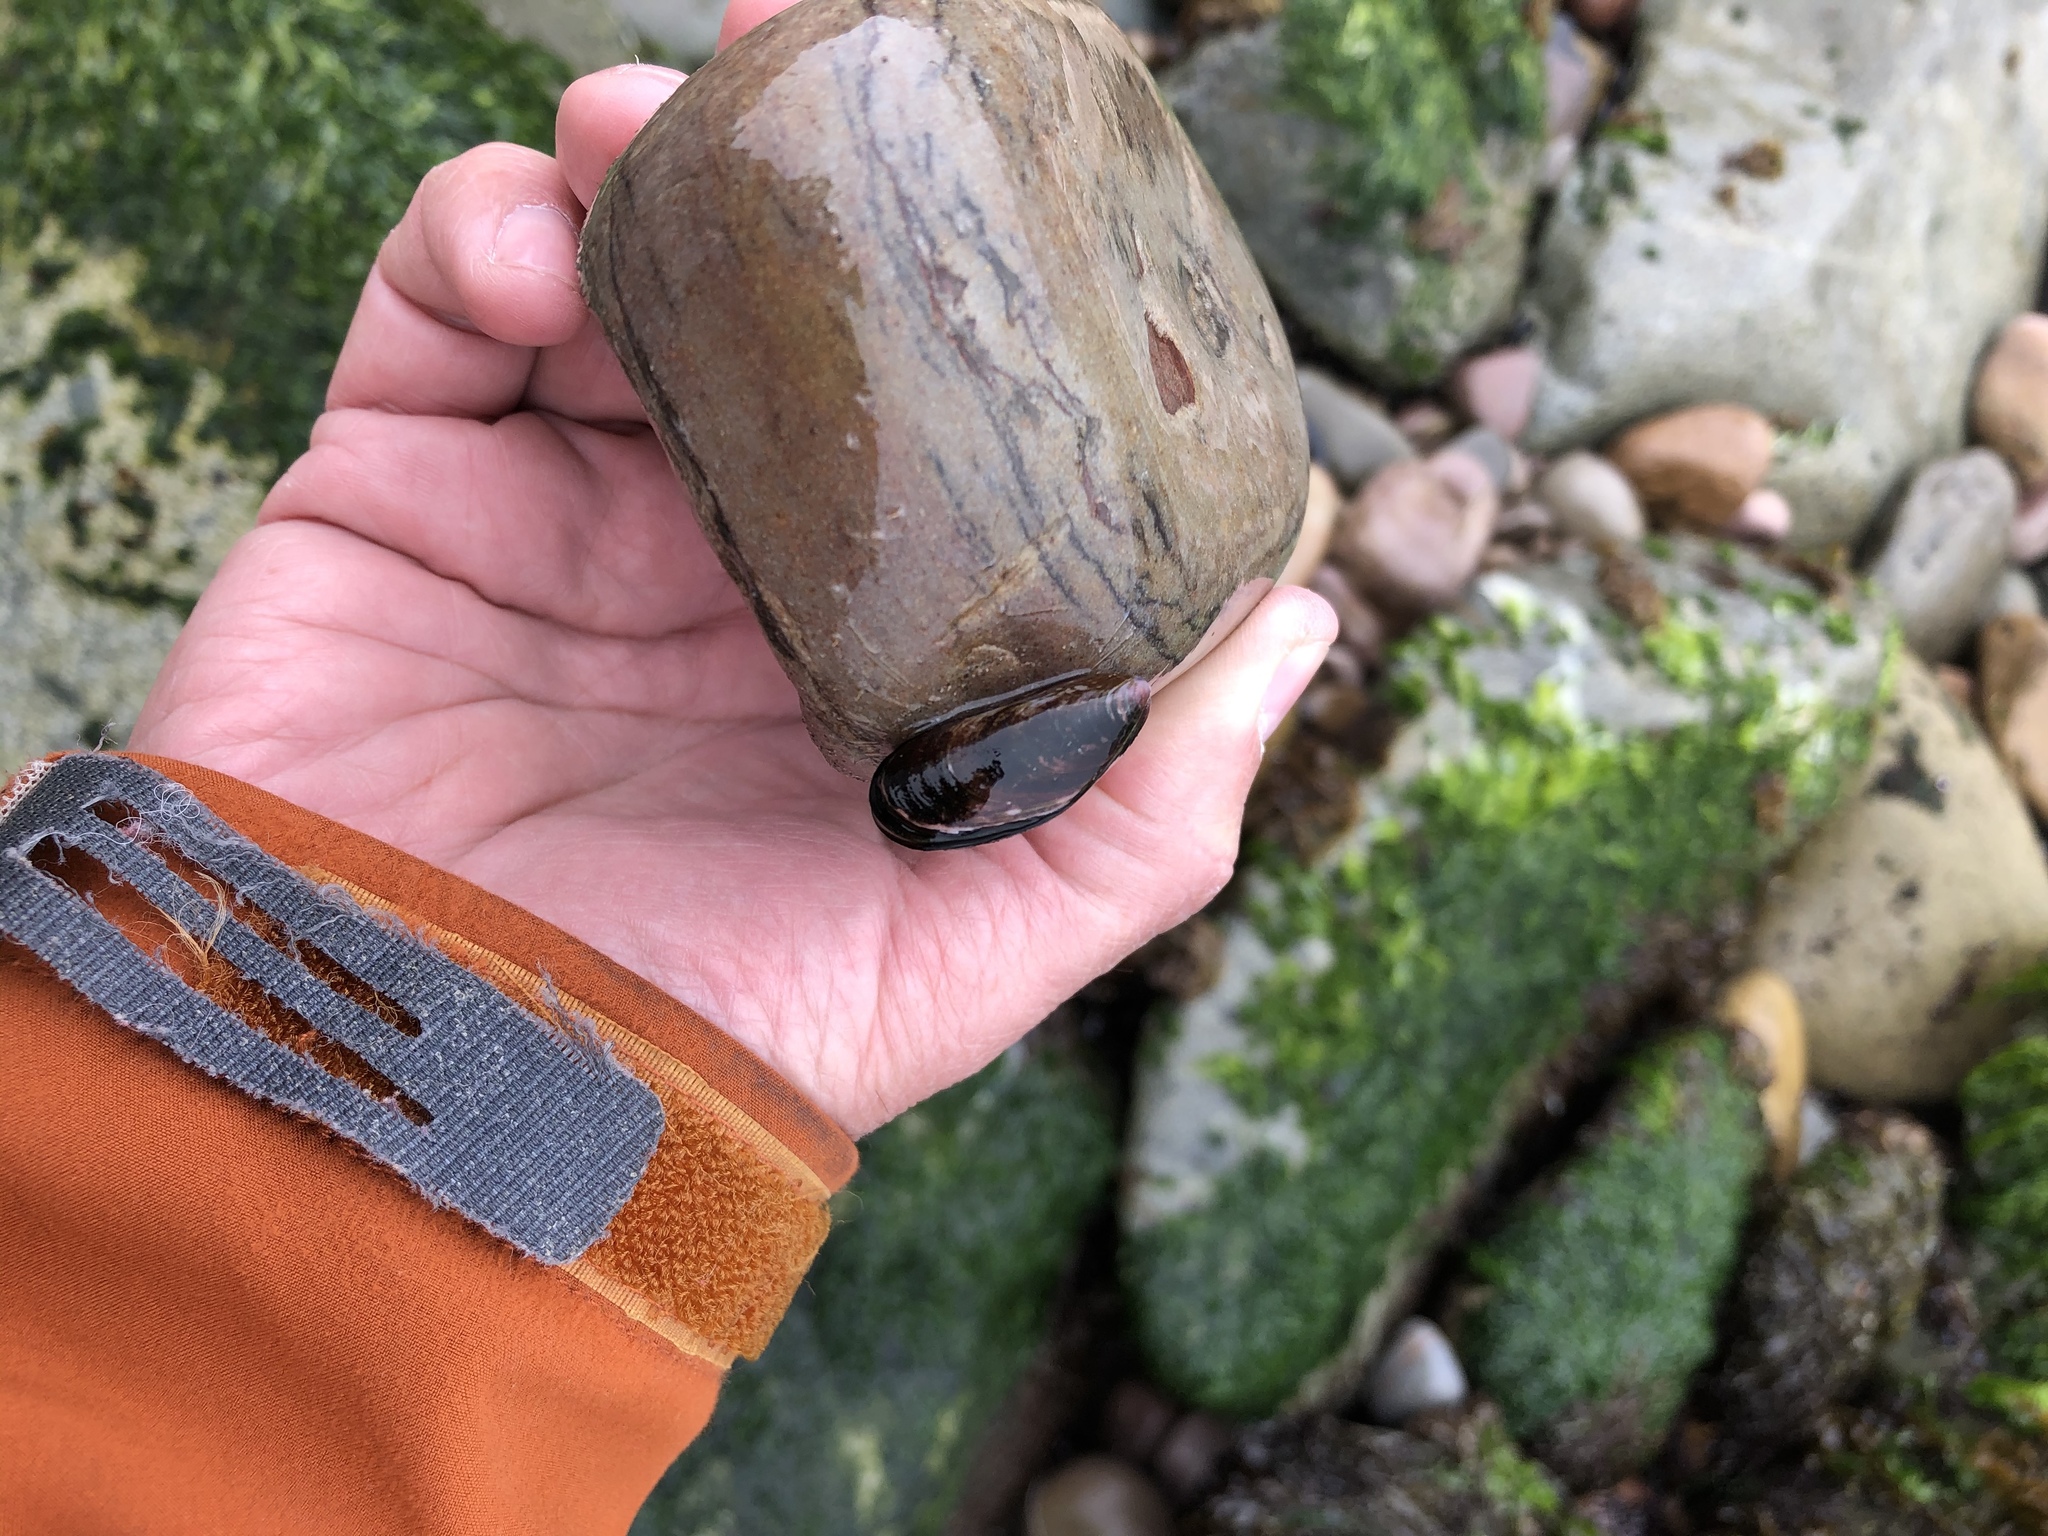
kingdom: Animalia
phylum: Mollusca
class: Bivalvia
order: Mytilida
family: Mytilidae
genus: Semimytilus
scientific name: Semimytilus patagonicus
